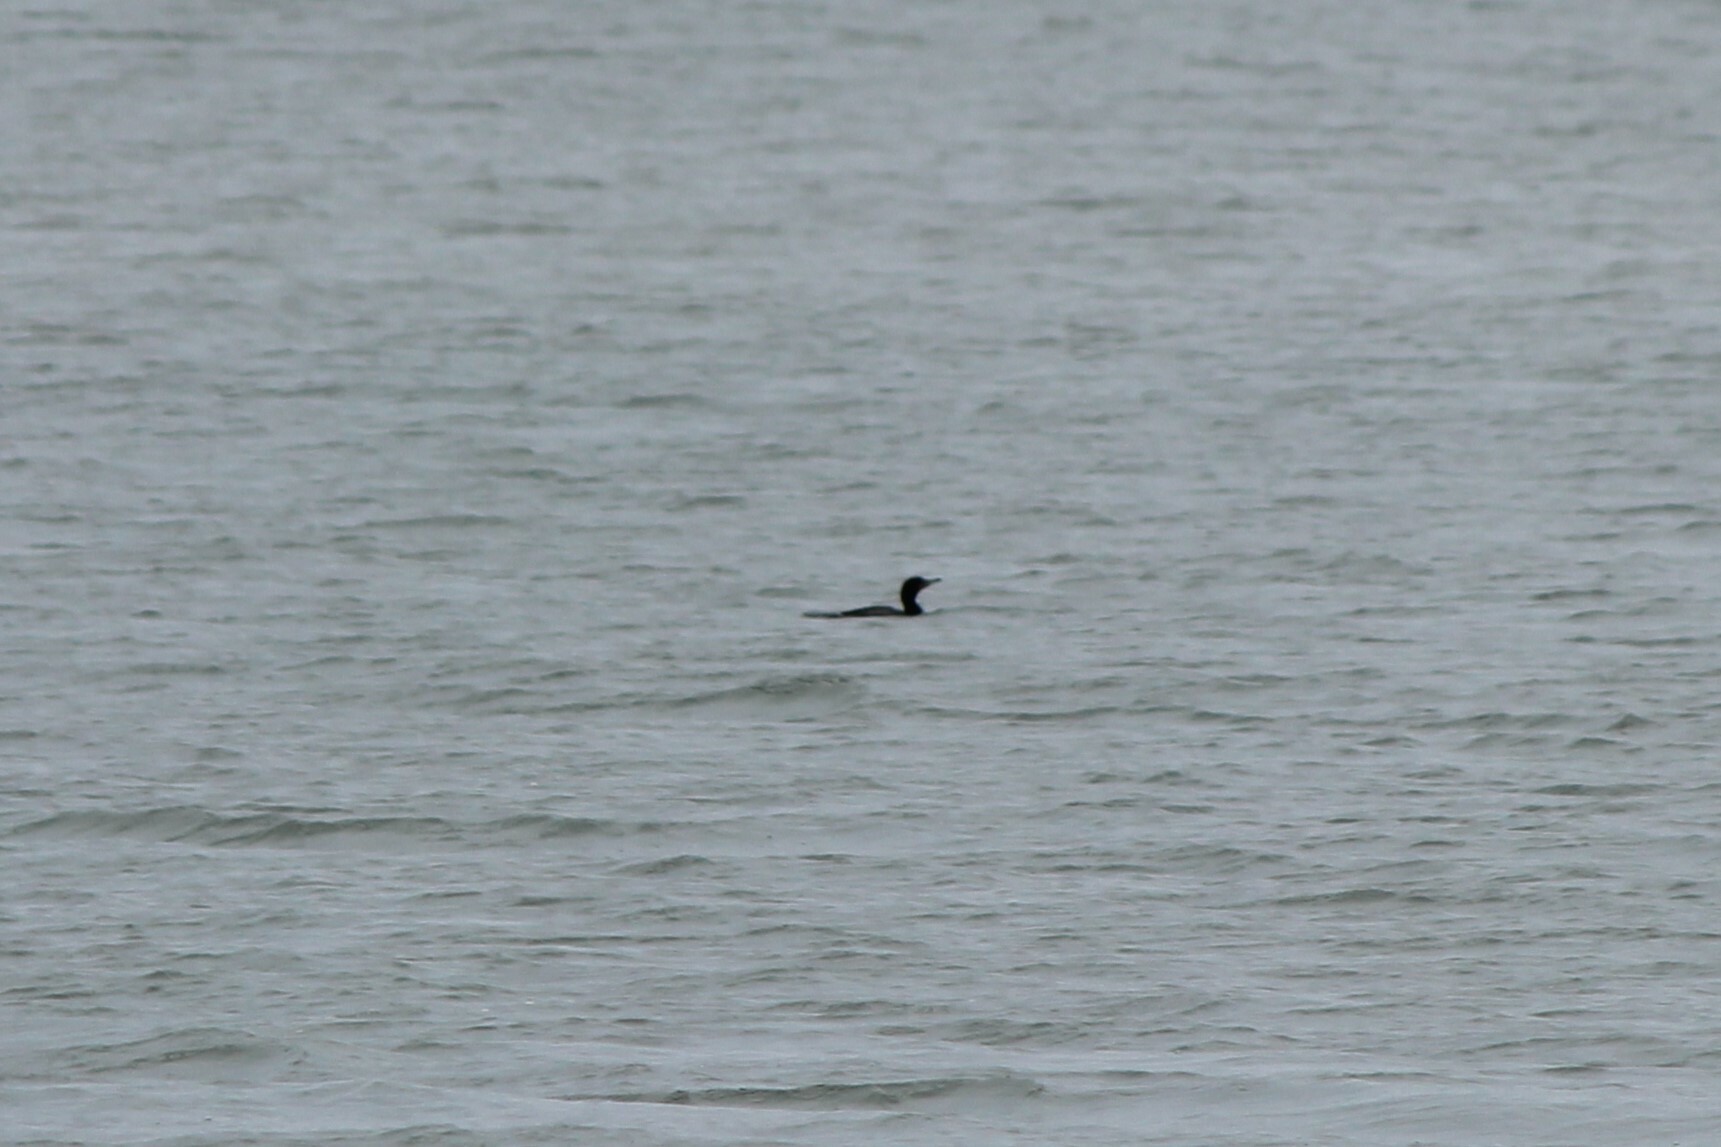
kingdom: Animalia
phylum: Chordata
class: Aves
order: Suliformes
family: Phalacrocoracidae
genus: Phalacrocorax
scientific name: Phalacrocorax auritus
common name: Double-crested cormorant
